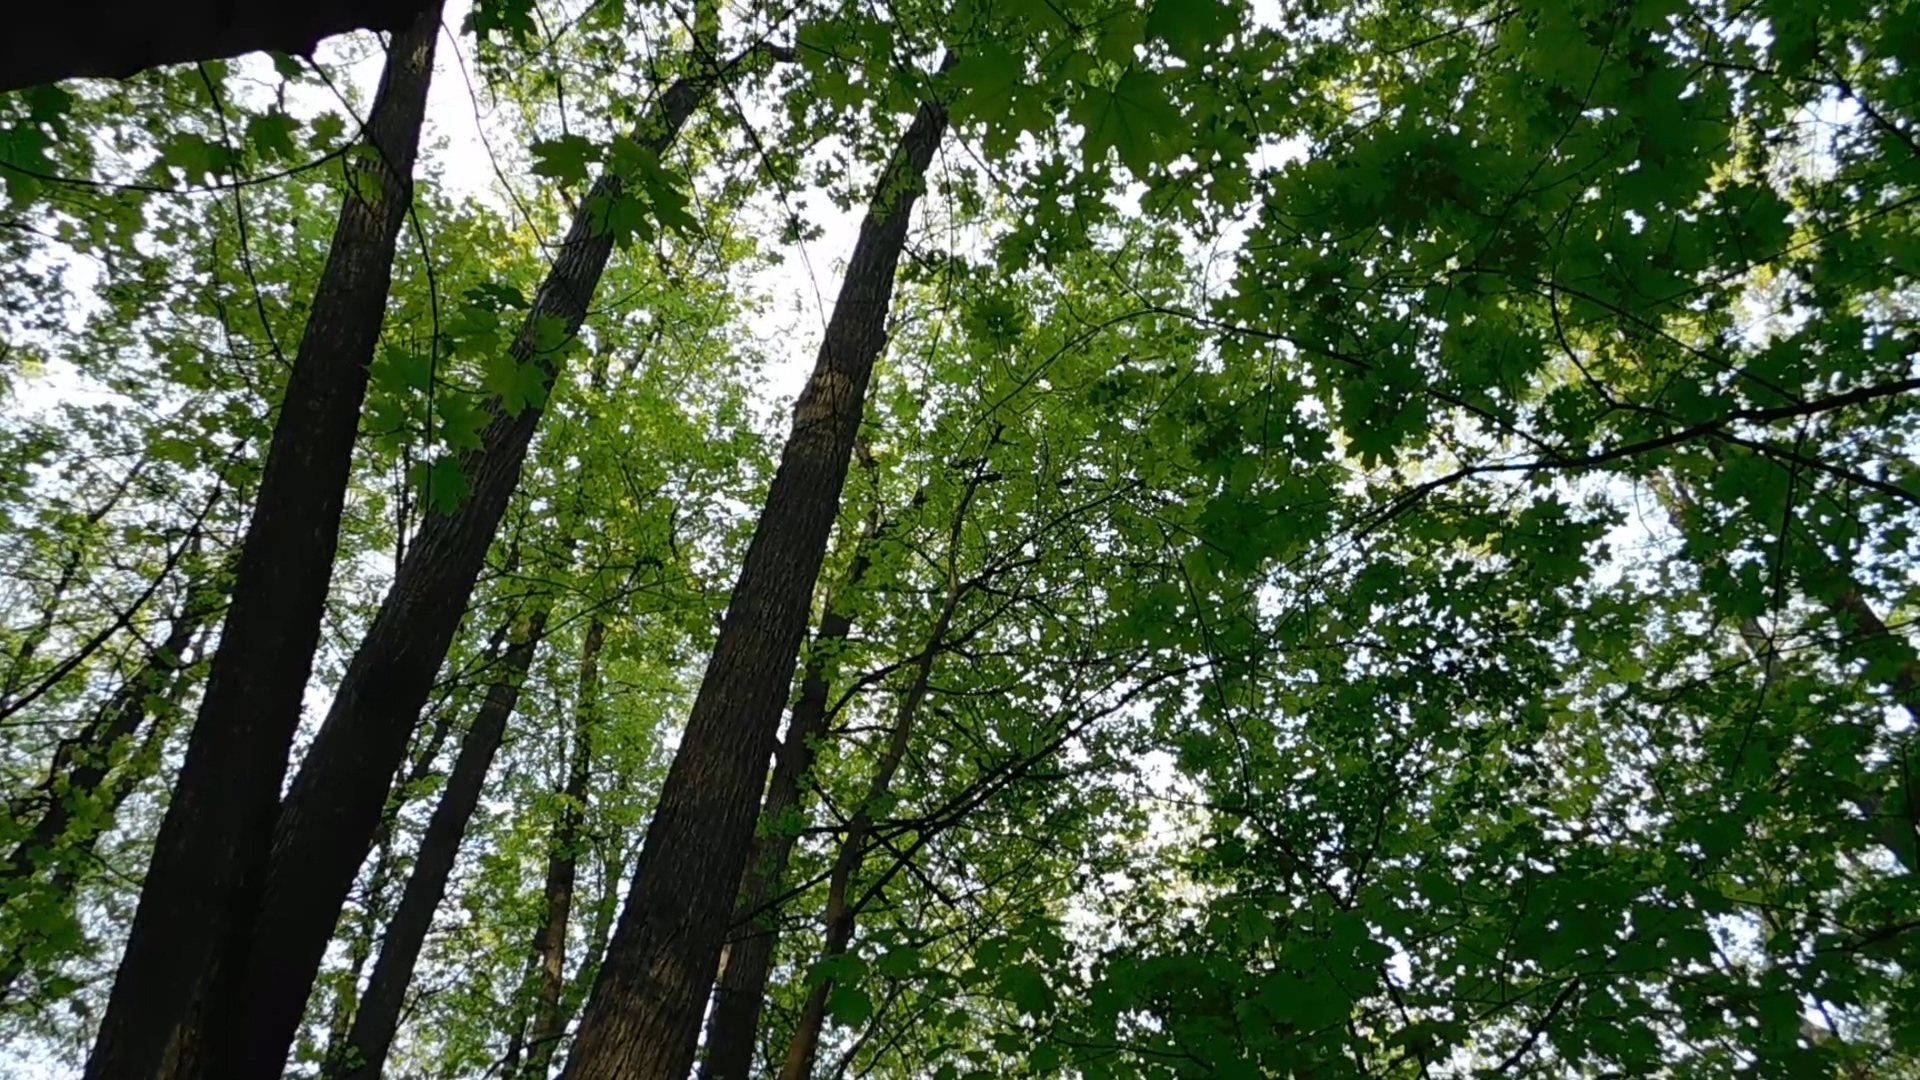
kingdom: Animalia
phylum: Chordata
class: Aves
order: Passeriformes
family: Phylloscopidae
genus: Phylloscopus
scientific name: Phylloscopus trochiloides
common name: Greenish warbler
